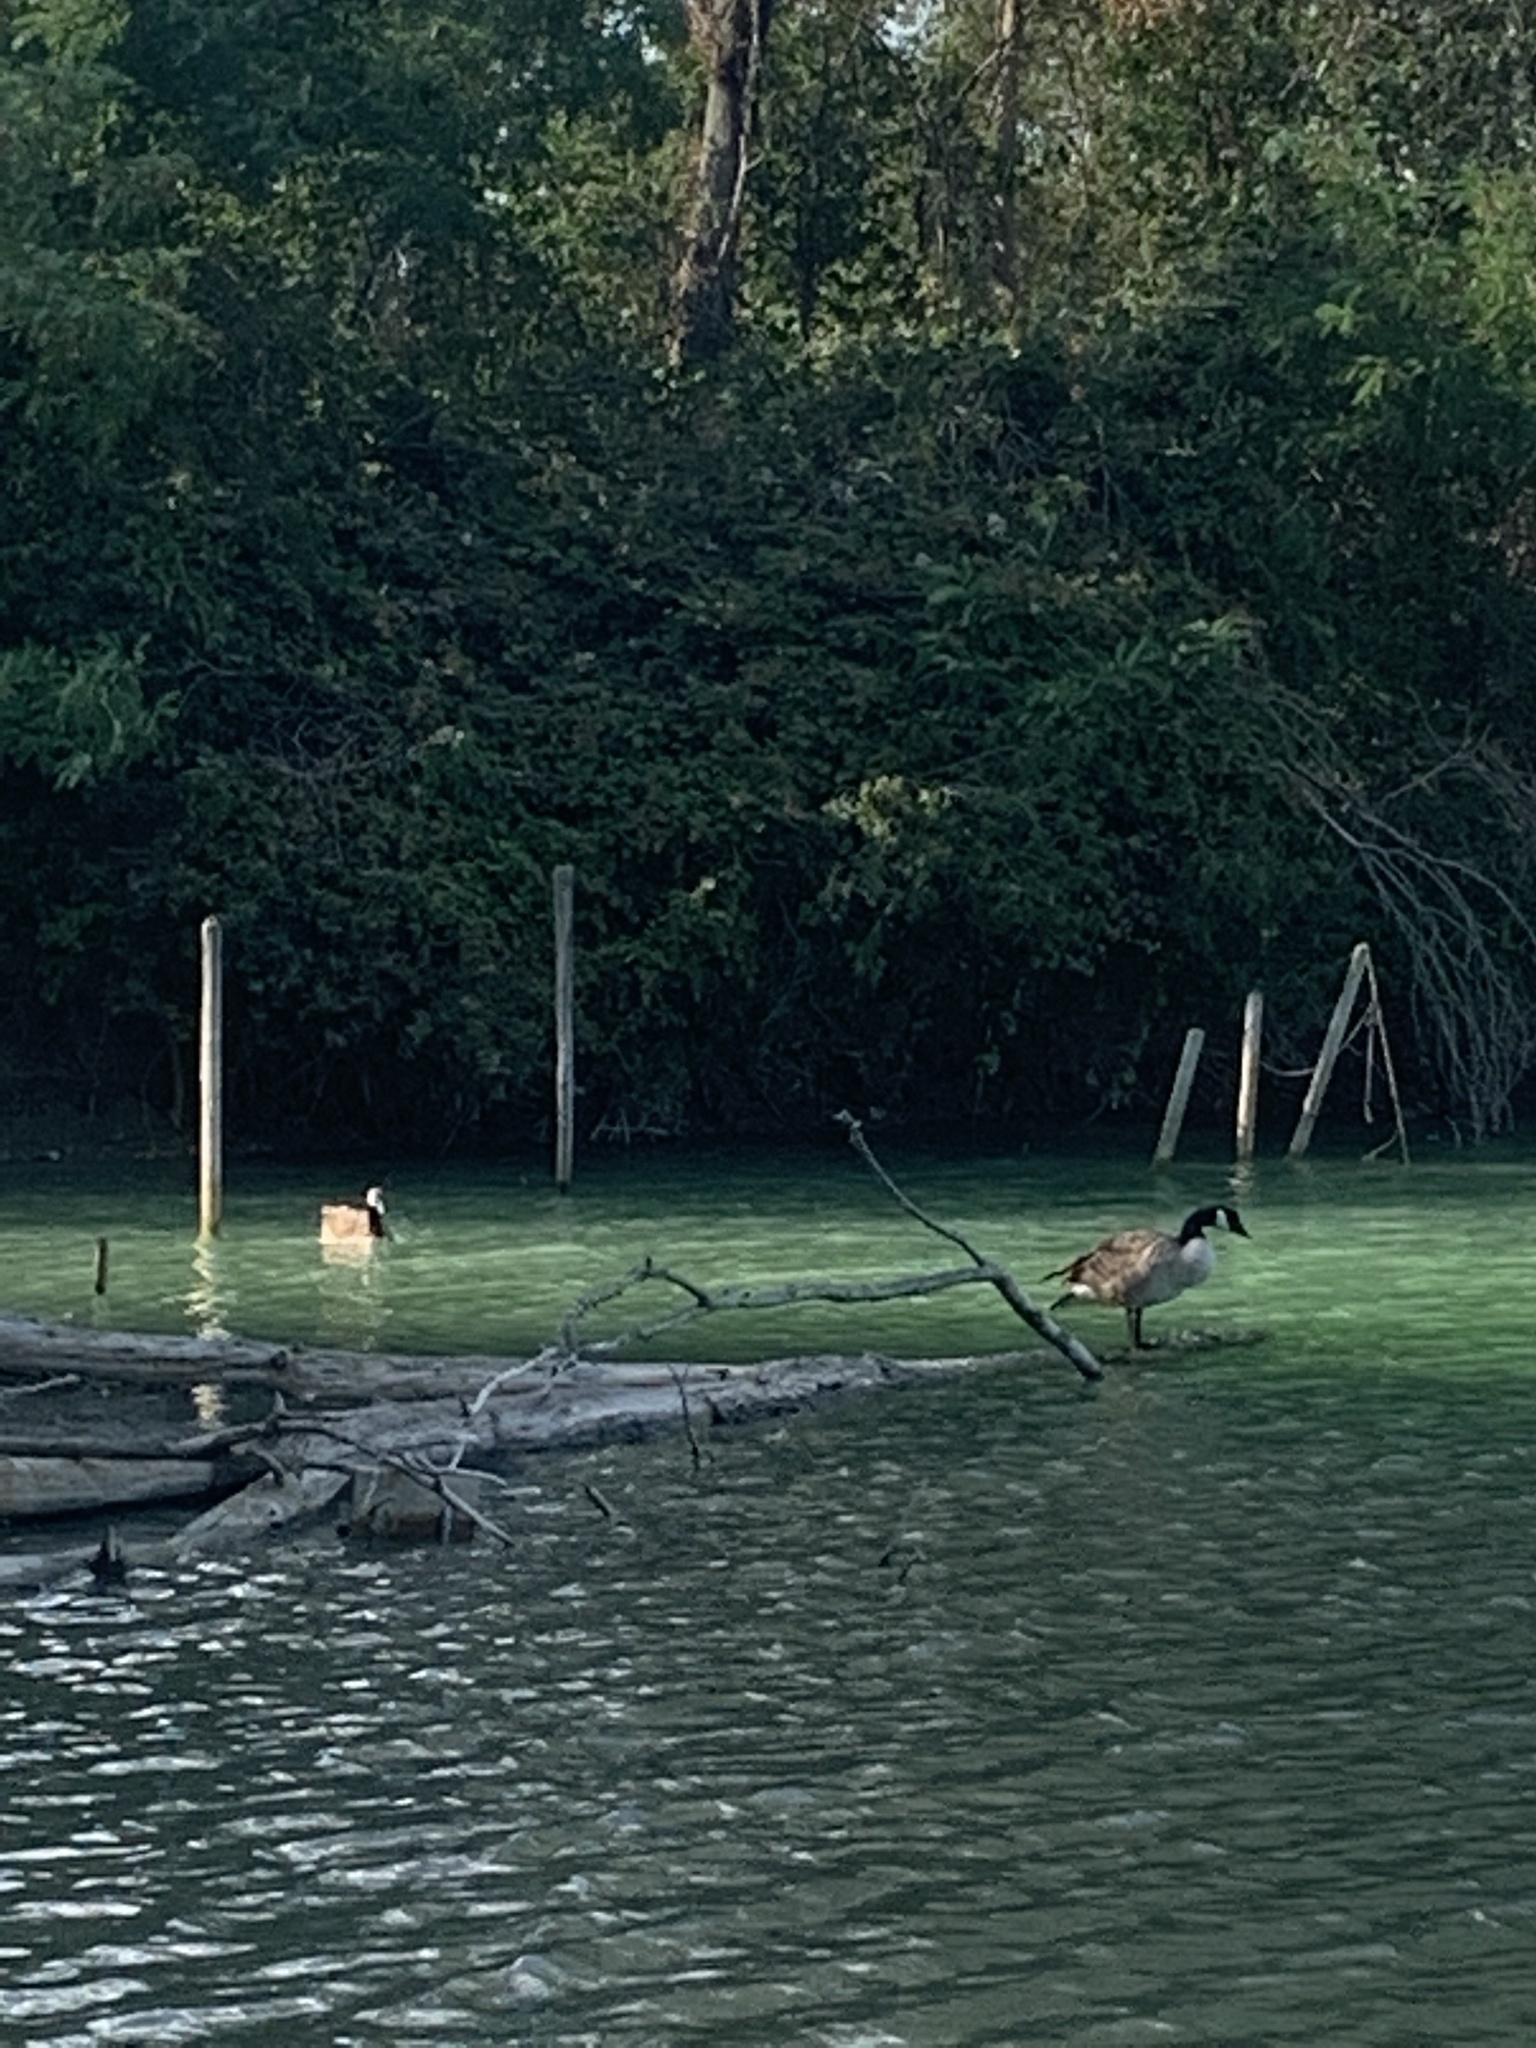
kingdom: Animalia
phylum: Chordata
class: Aves
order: Anseriformes
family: Anatidae
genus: Branta
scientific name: Branta canadensis
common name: Canada goose
